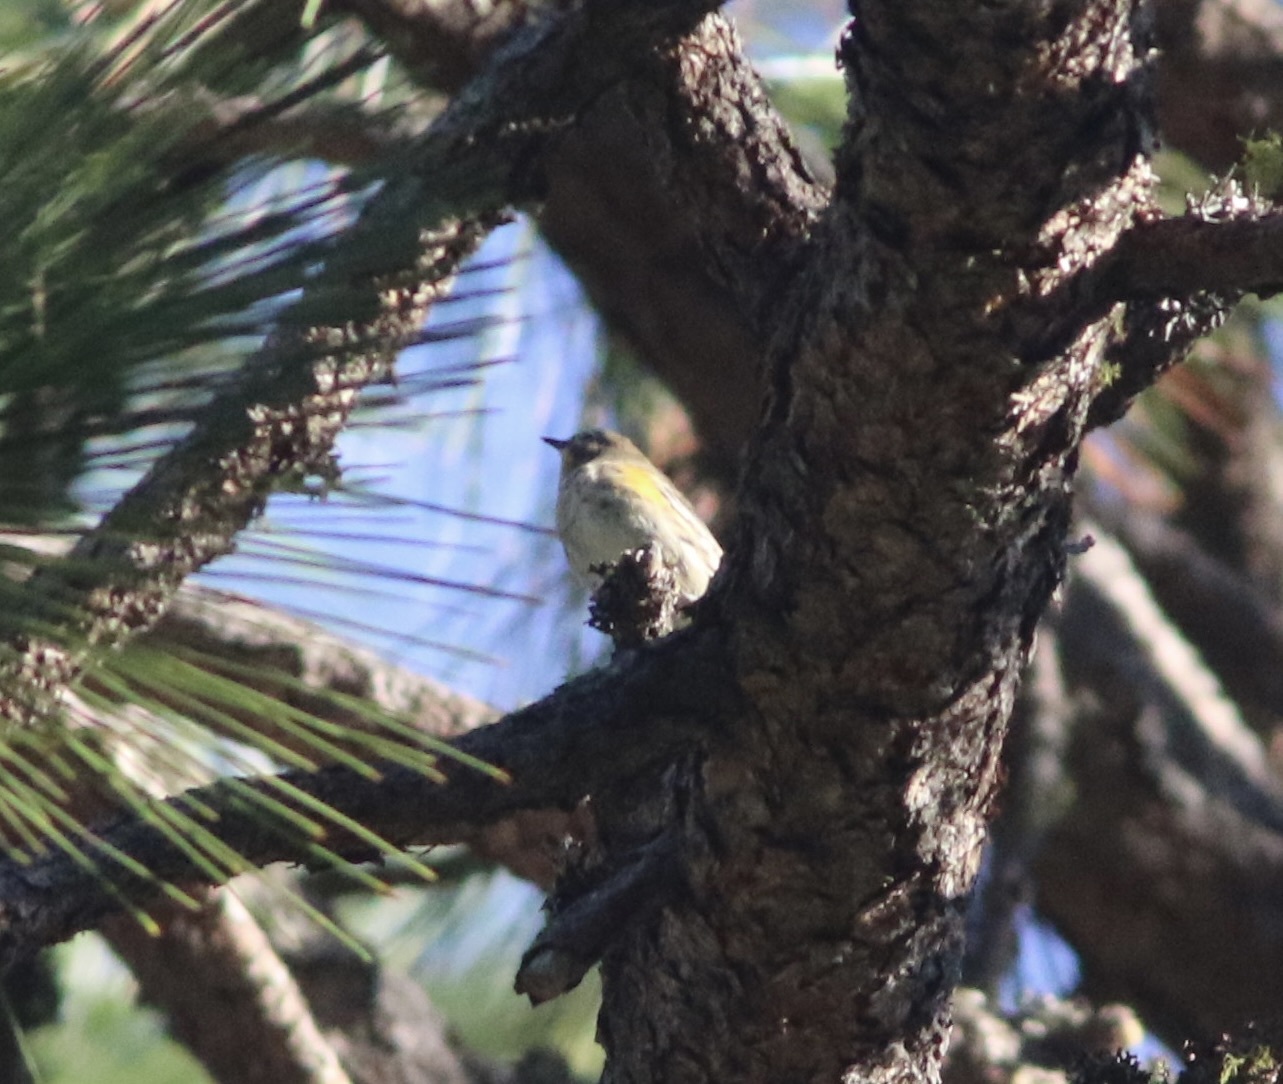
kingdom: Animalia
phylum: Chordata
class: Aves
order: Passeriformes
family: Parulidae
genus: Setophaga
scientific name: Setophaga coronata
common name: Myrtle warbler
